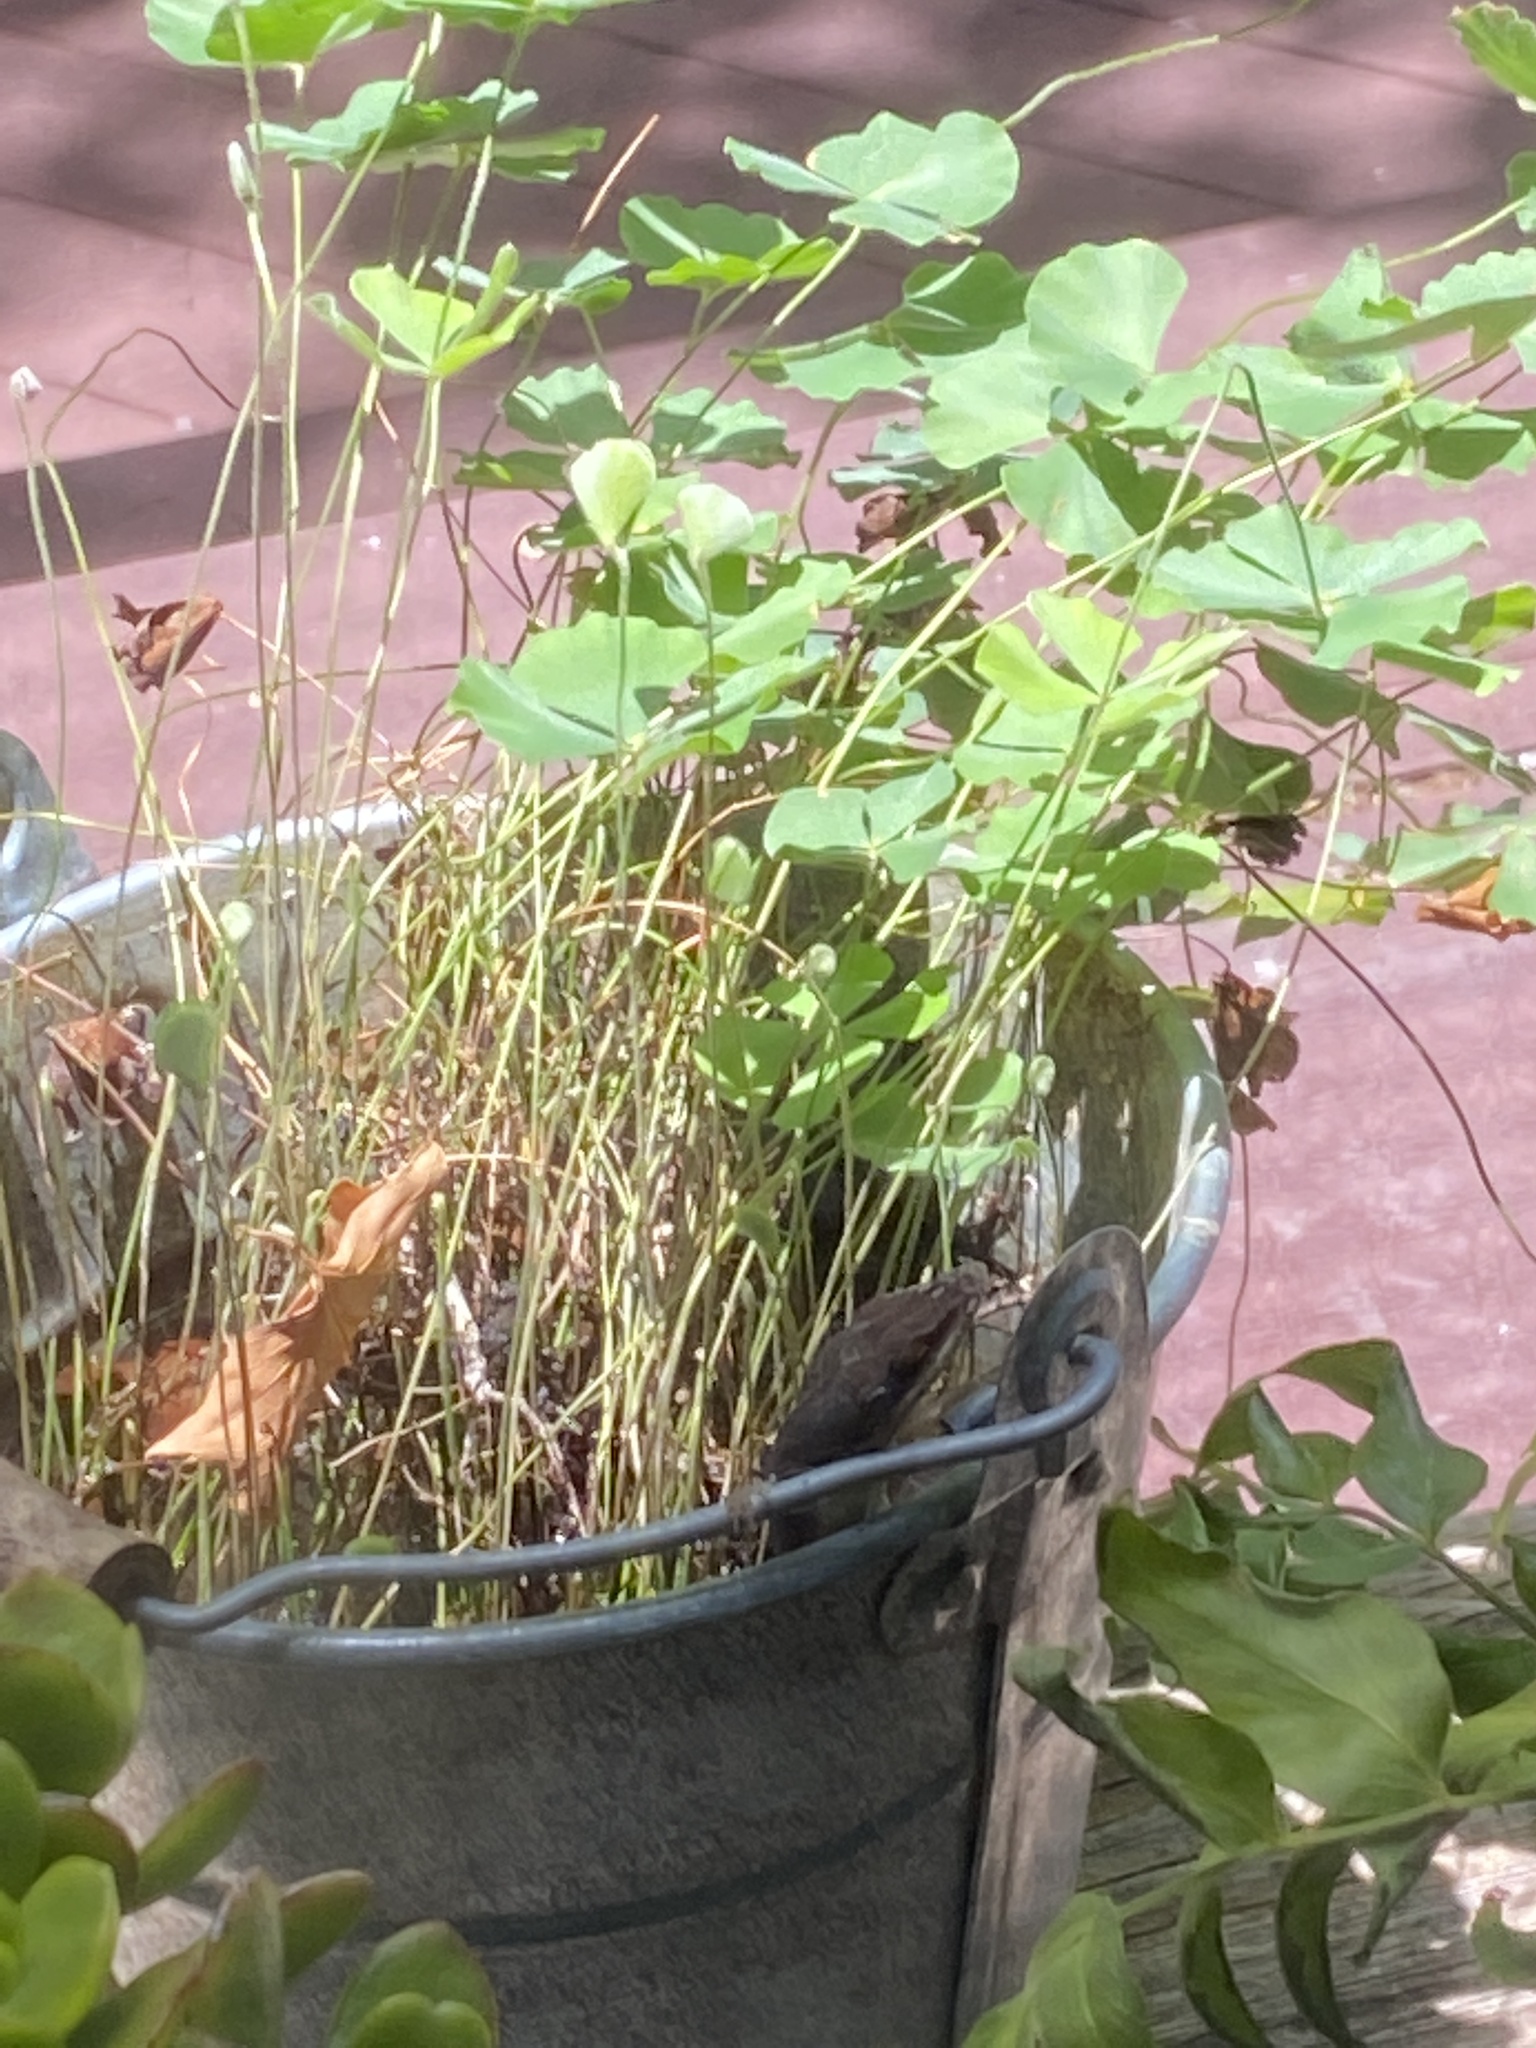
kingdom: Animalia
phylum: Chordata
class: Squamata
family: Dactyloidae
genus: Anolis
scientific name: Anolis carolinensis
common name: Green anole
